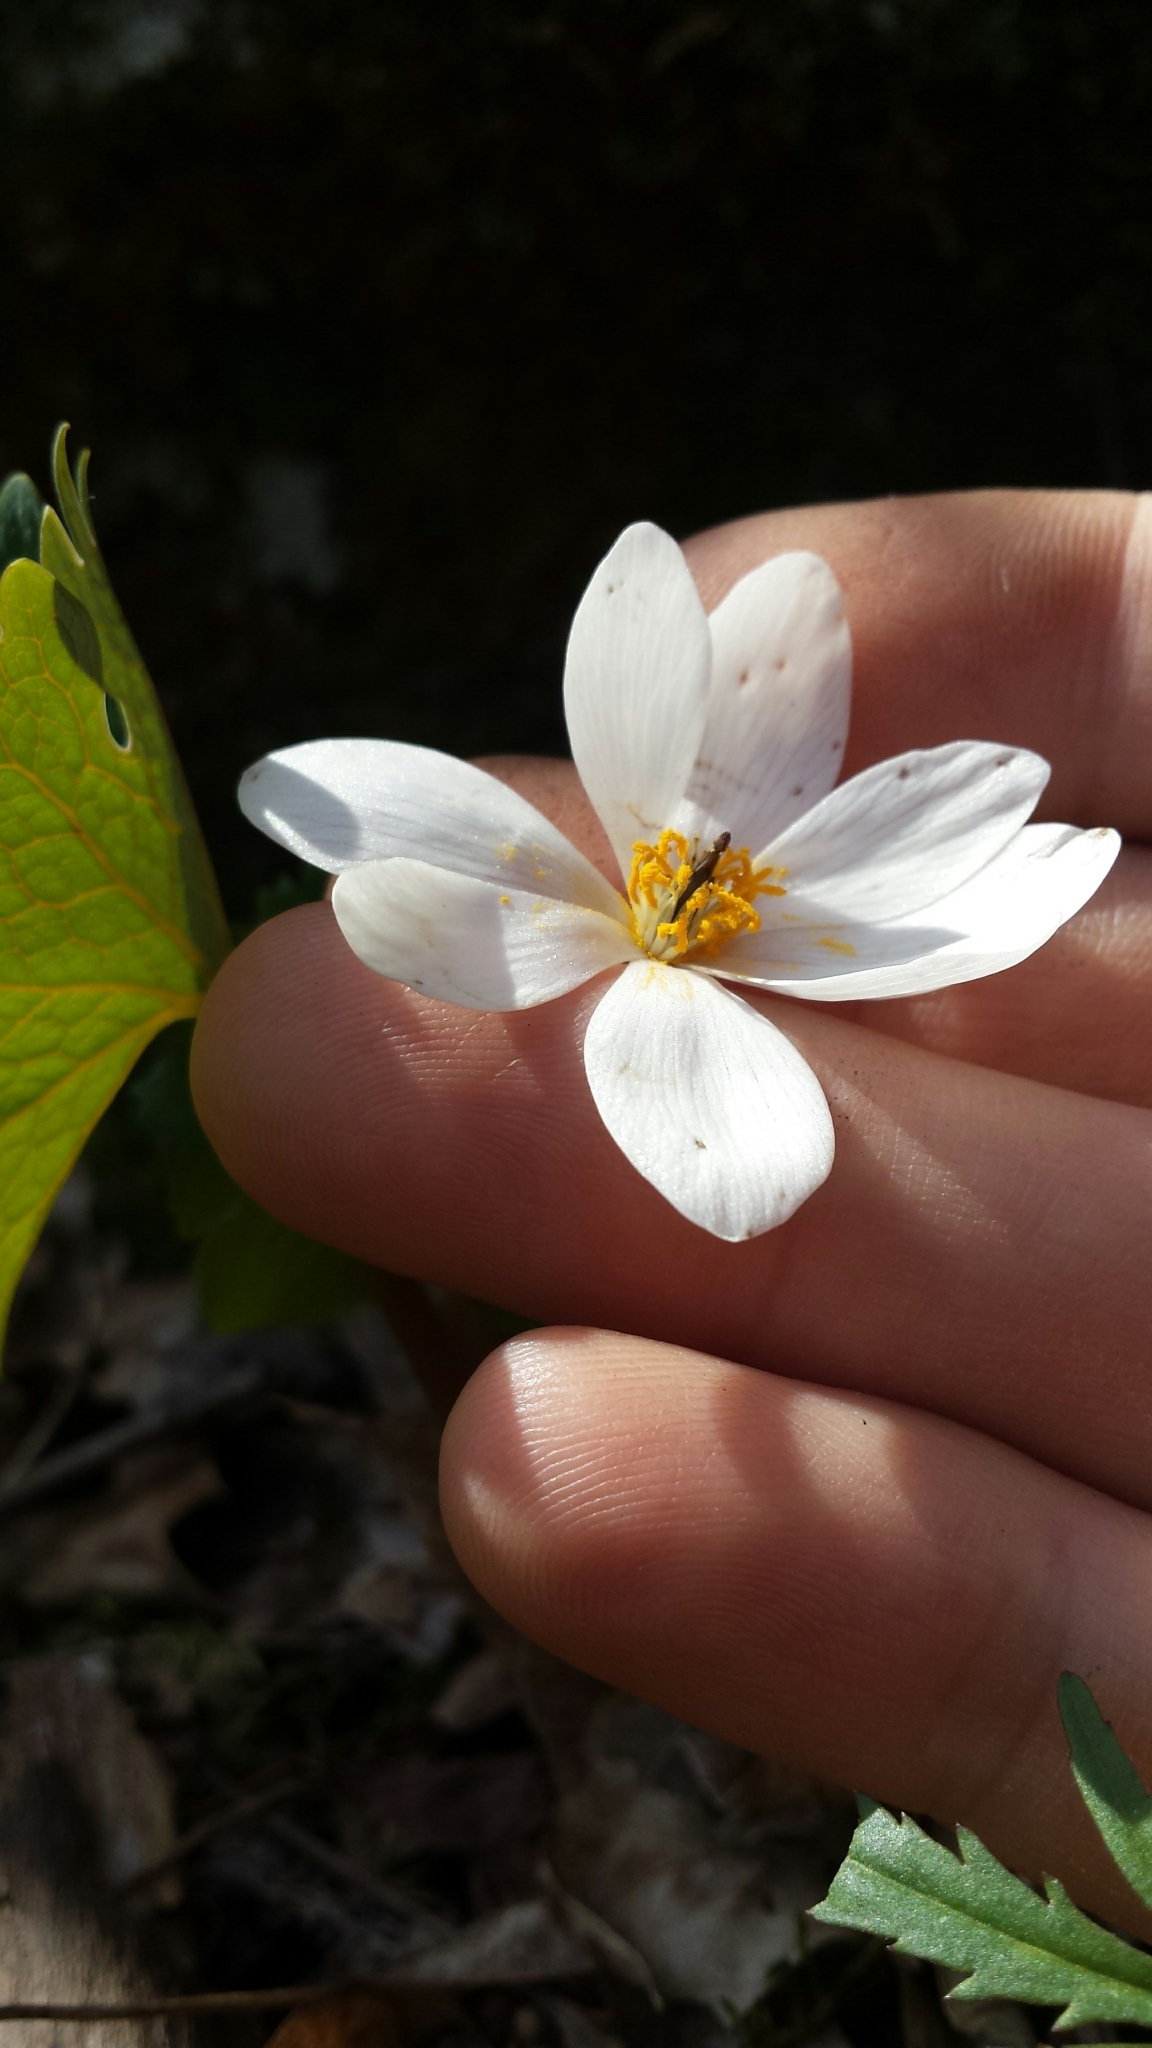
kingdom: Plantae
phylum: Tracheophyta
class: Magnoliopsida
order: Ranunculales
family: Papaveraceae
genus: Sanguinaria
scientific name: Sanguinaria canadensis
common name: Bloodroot
